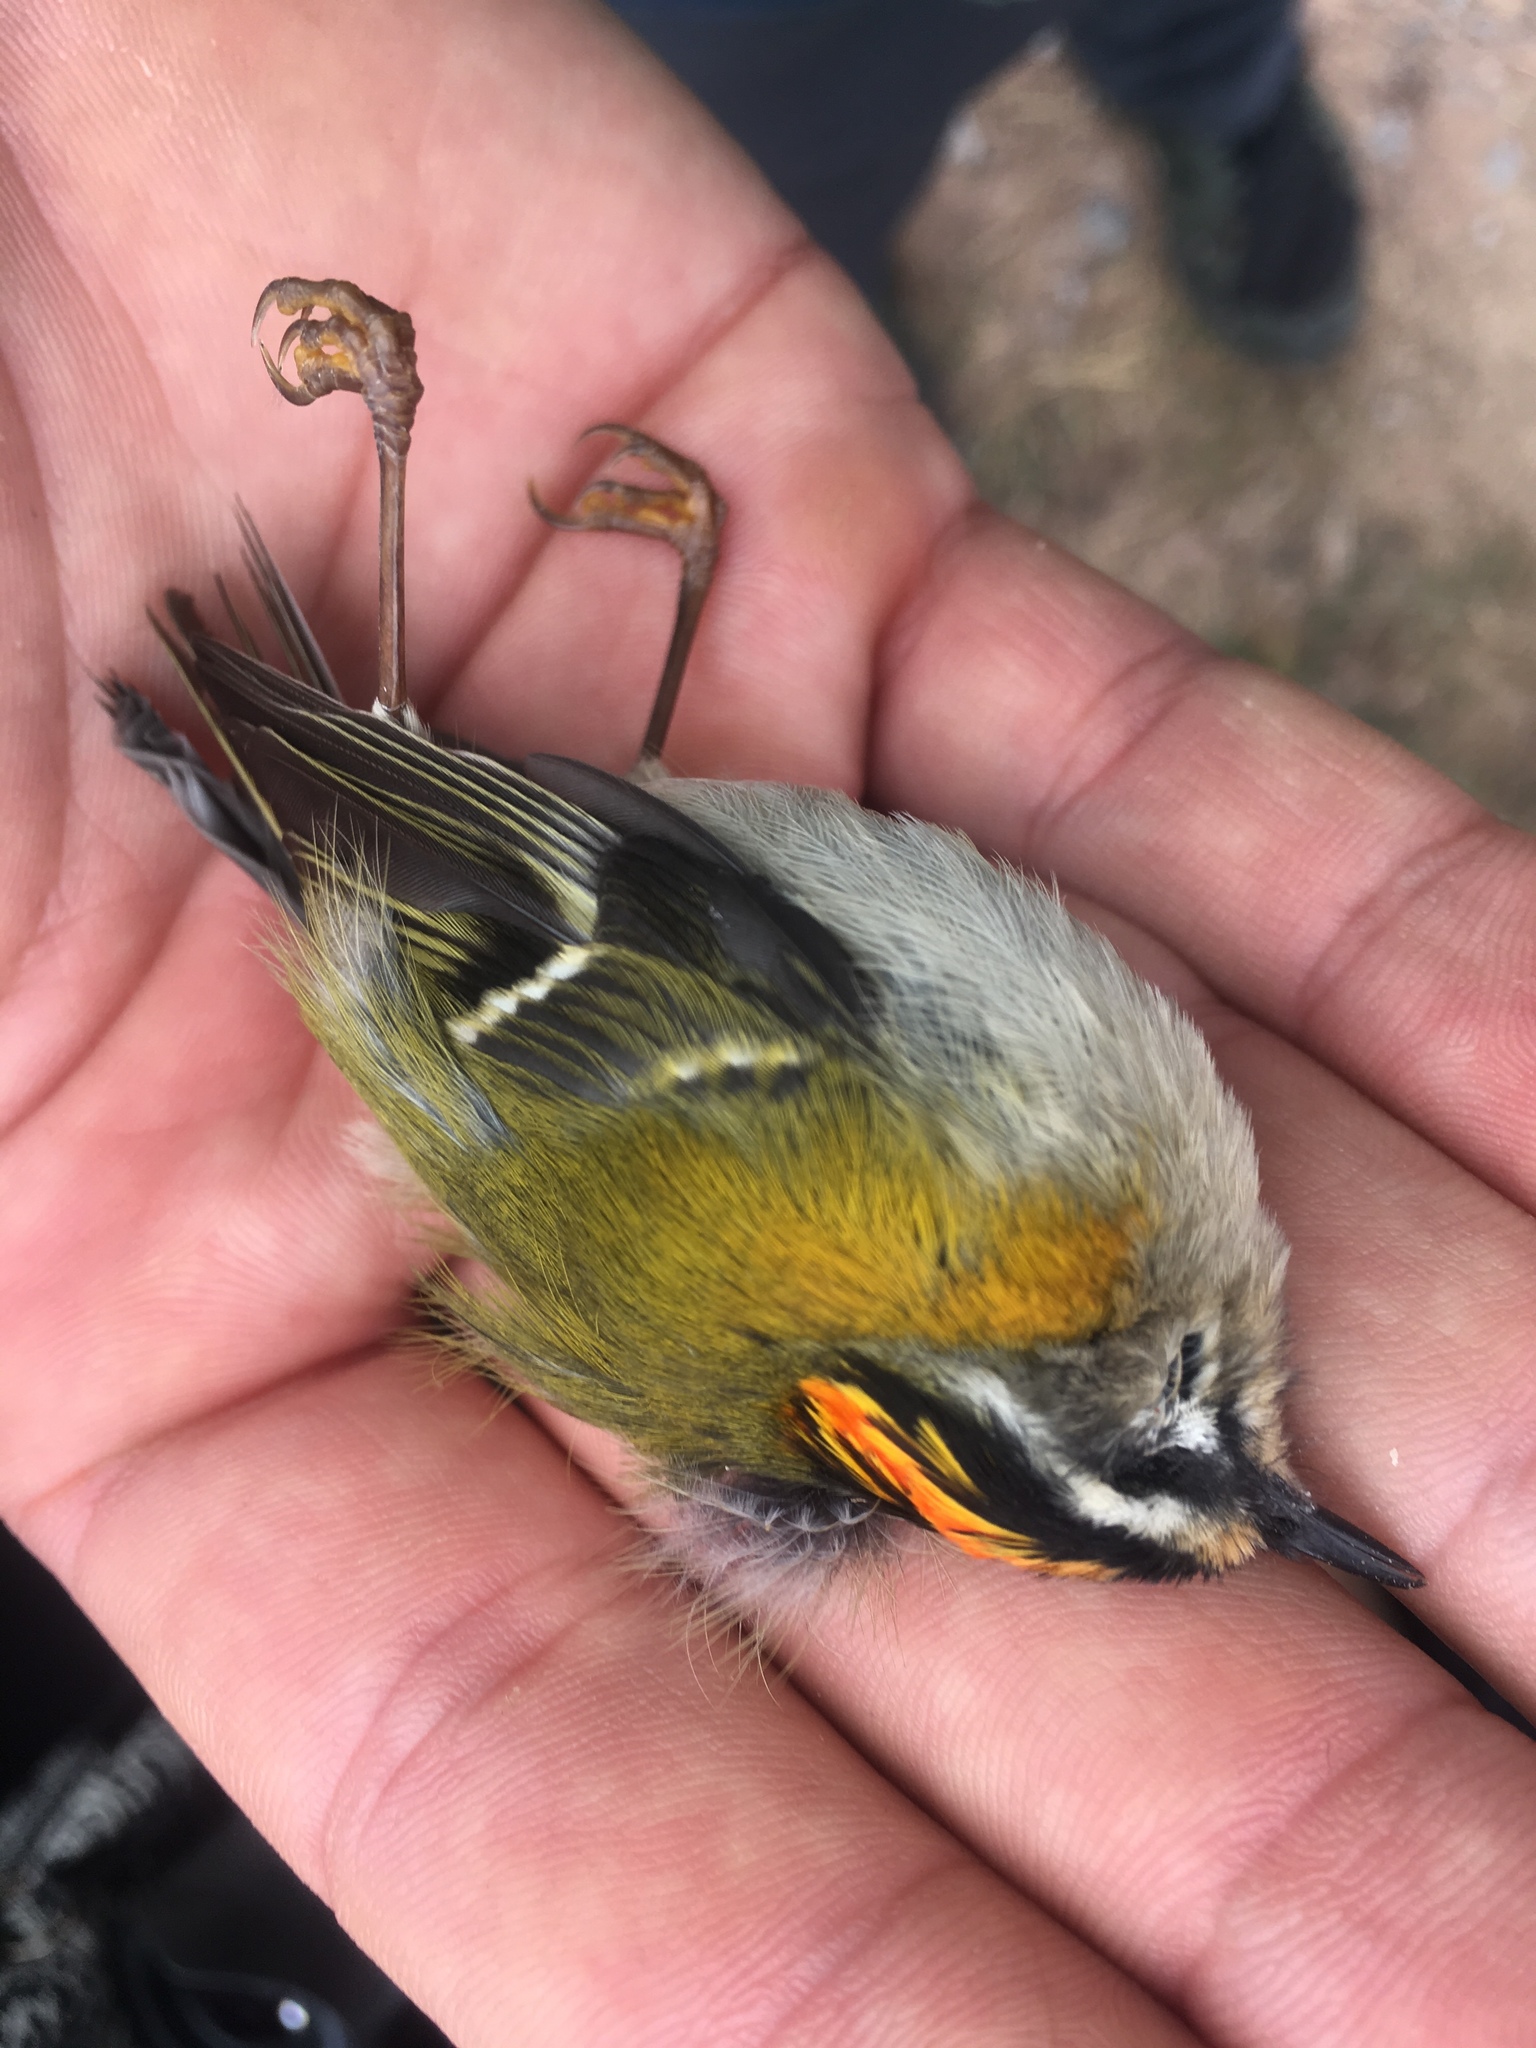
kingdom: Animalia
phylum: Chordata
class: Aves
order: Passeriformes
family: Regulidae
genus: Regulus
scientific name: Regulus ignicapilla
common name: Firecrest
